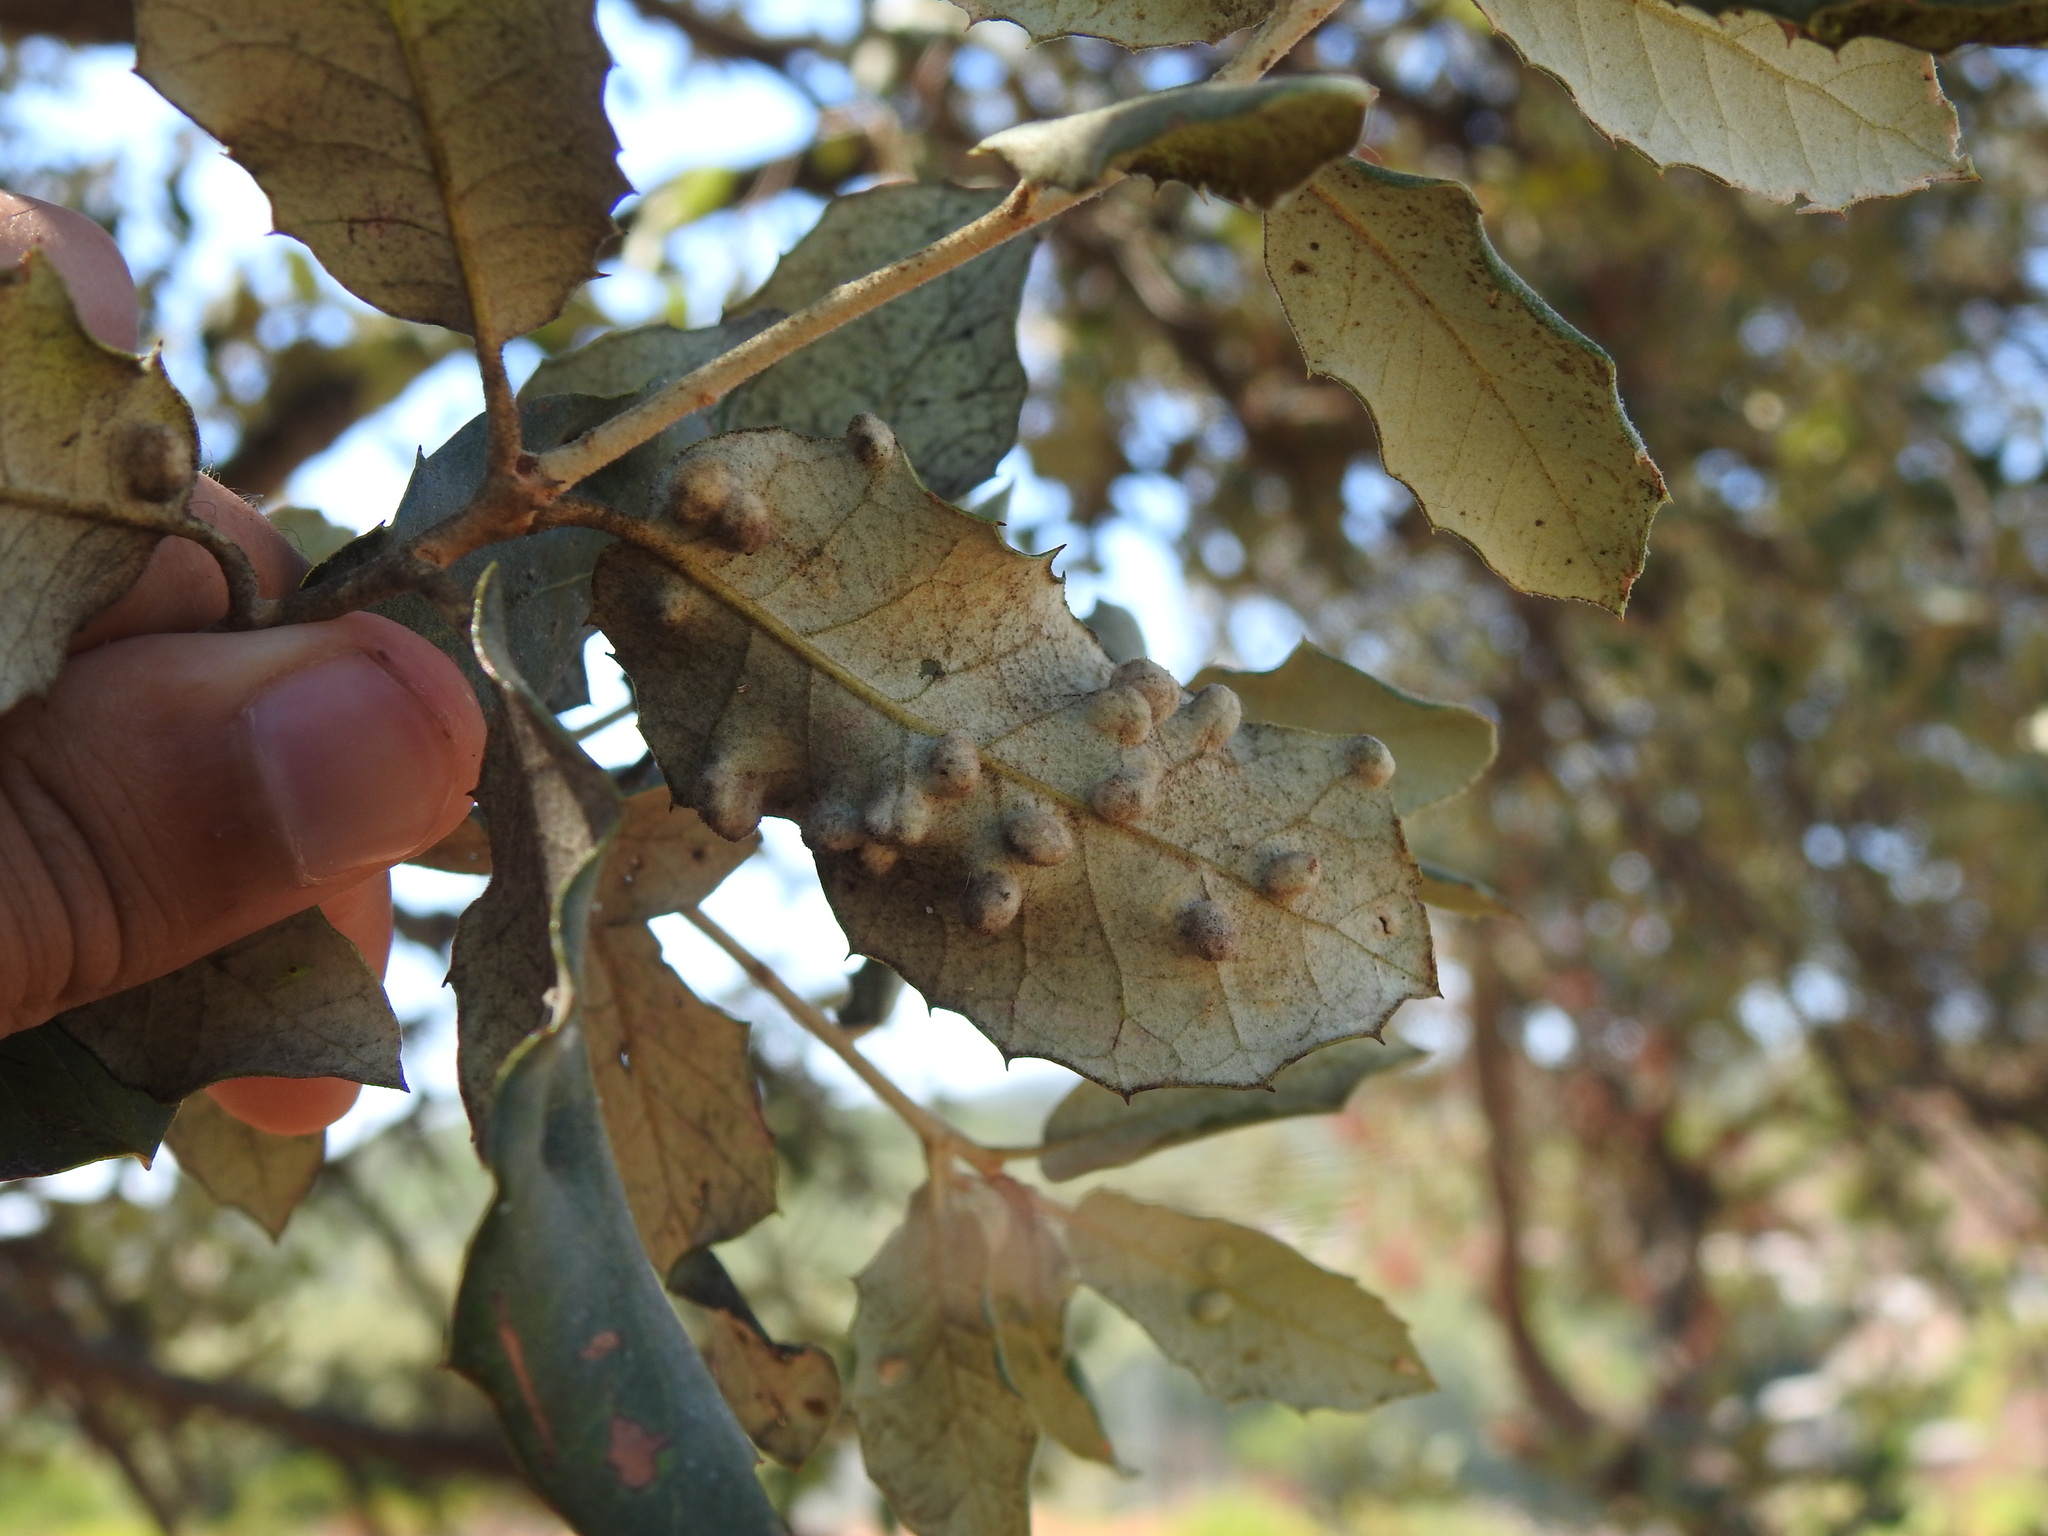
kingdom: Animalia
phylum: Arthropoda
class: Insecta
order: Diptera
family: Cecidomyiidae
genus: Dryomyia
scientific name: Dryomyia lichtensteinii
